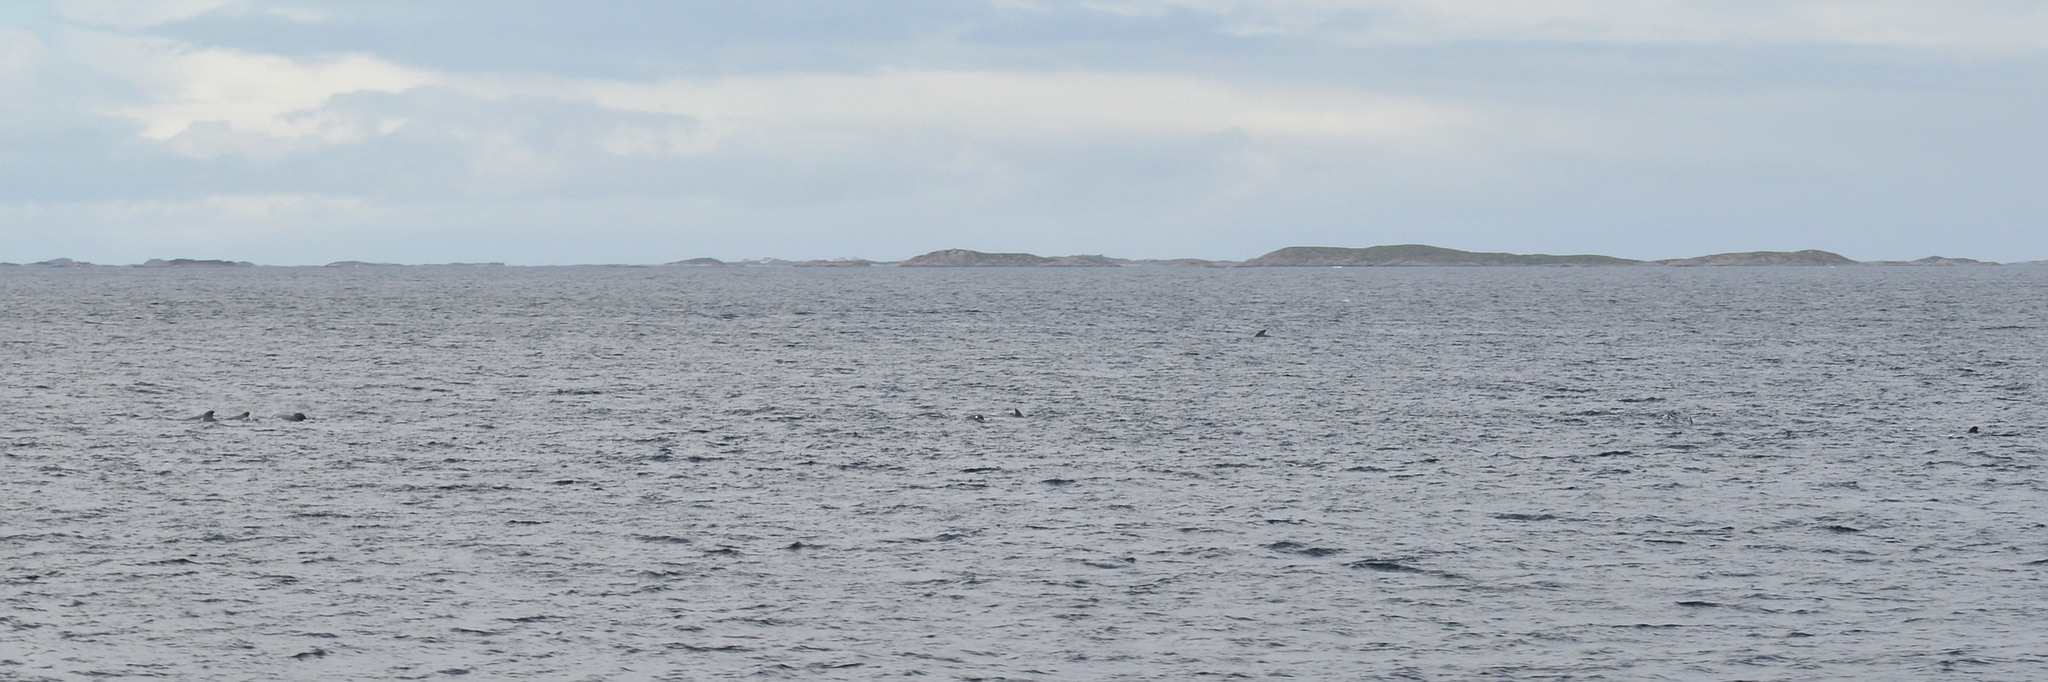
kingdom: Animalia
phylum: Chordata
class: Mammalia
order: Cetacea
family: Delphinidae
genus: Globicephala
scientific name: Globicephala melas
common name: Long-finned pilot whale
